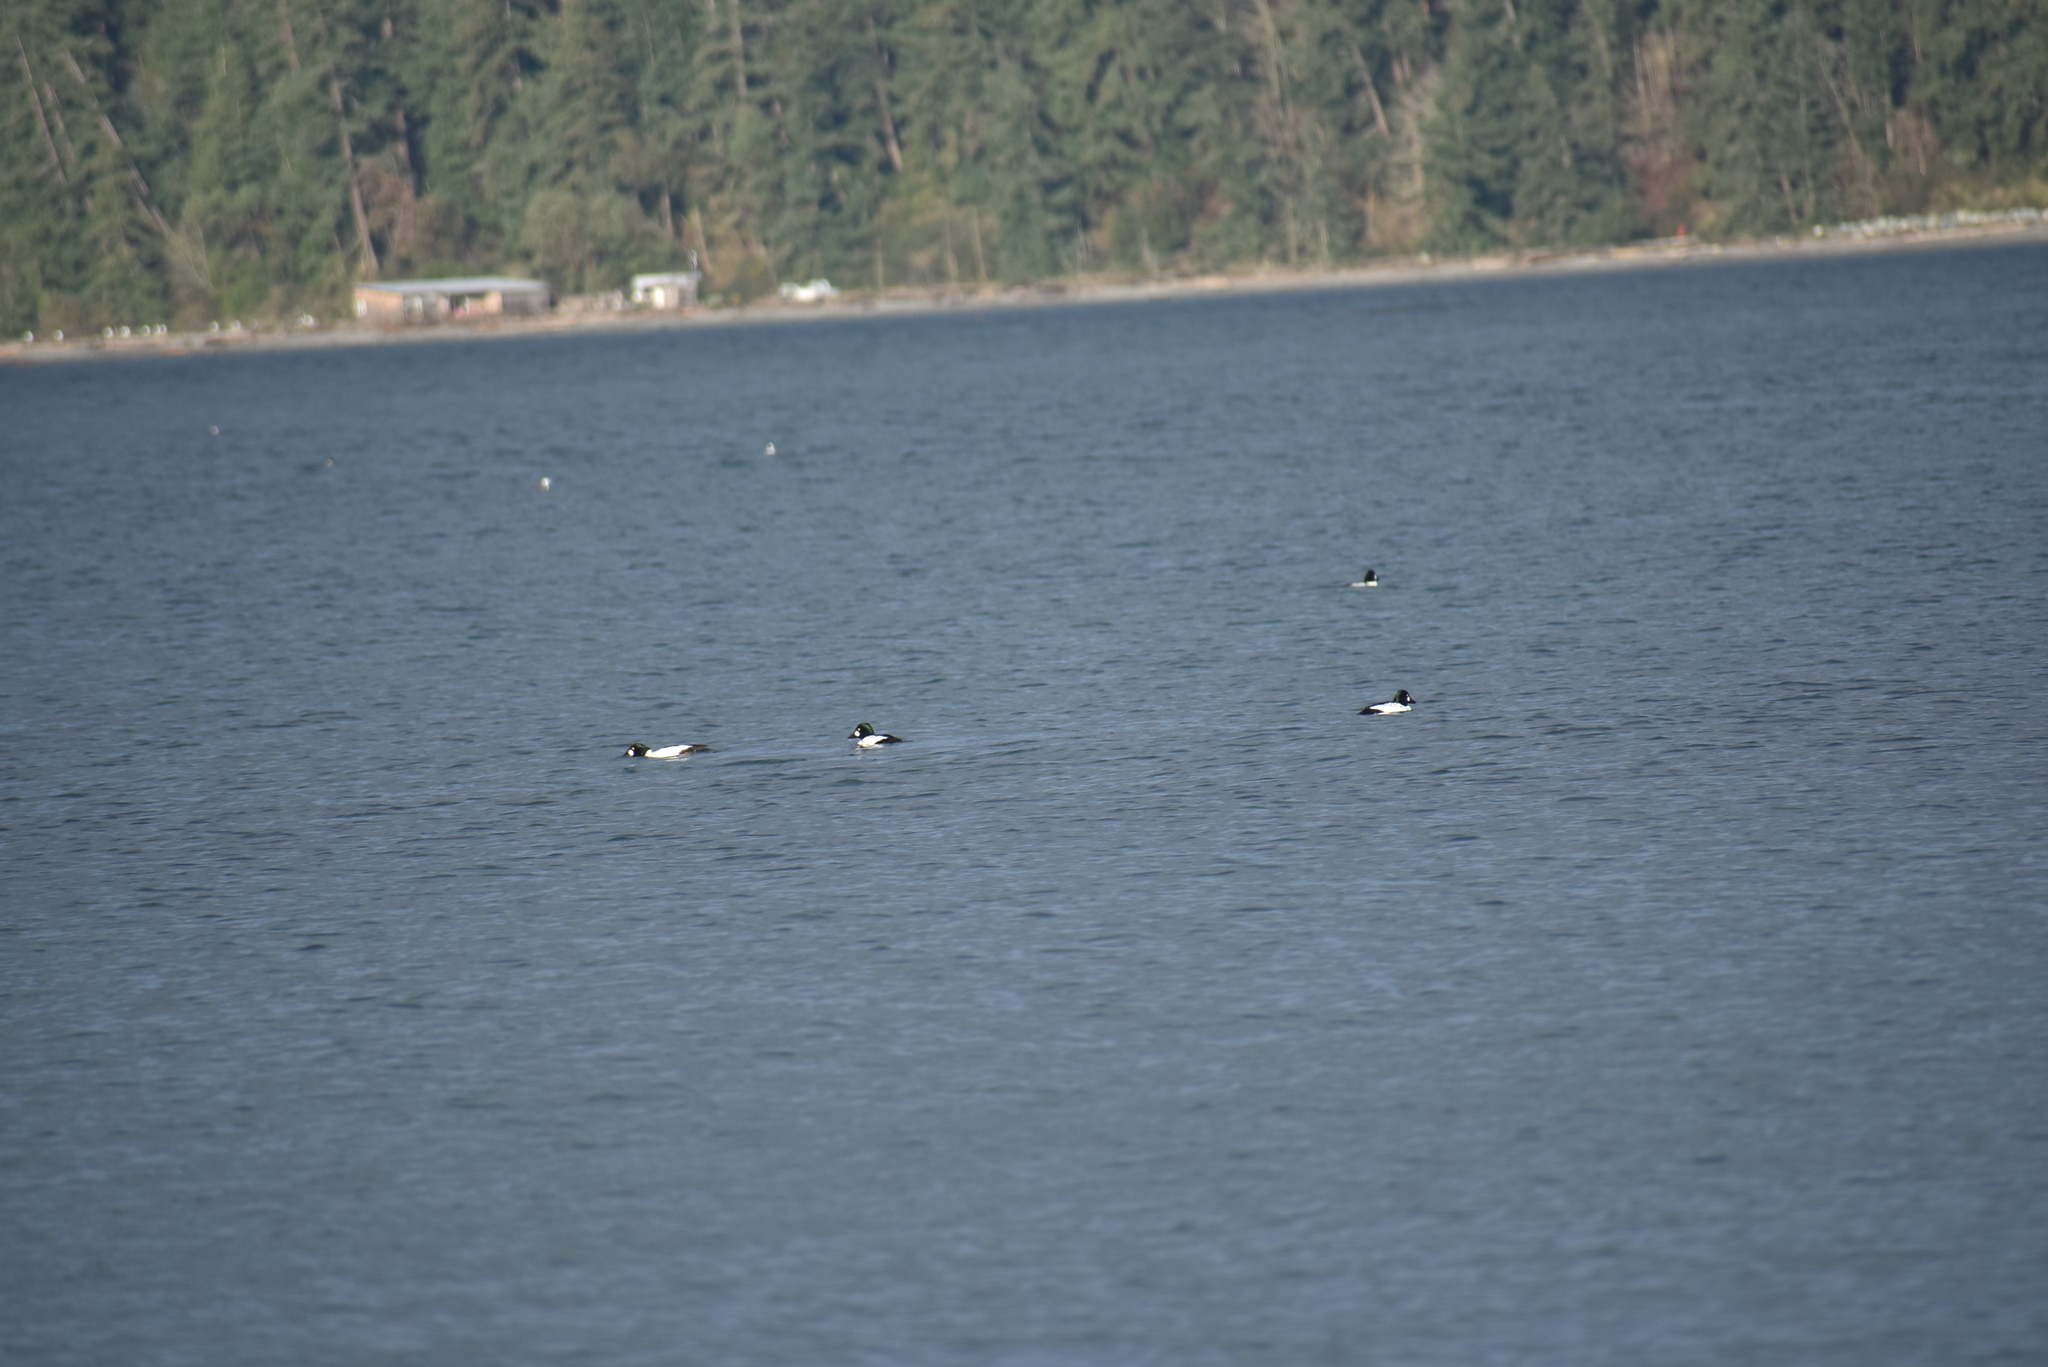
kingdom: Animalia
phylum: Chordata
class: Aves
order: Anseriformes
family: Anatidae
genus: Bucephala
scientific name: Bucephala clangula
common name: Common goldeneye
